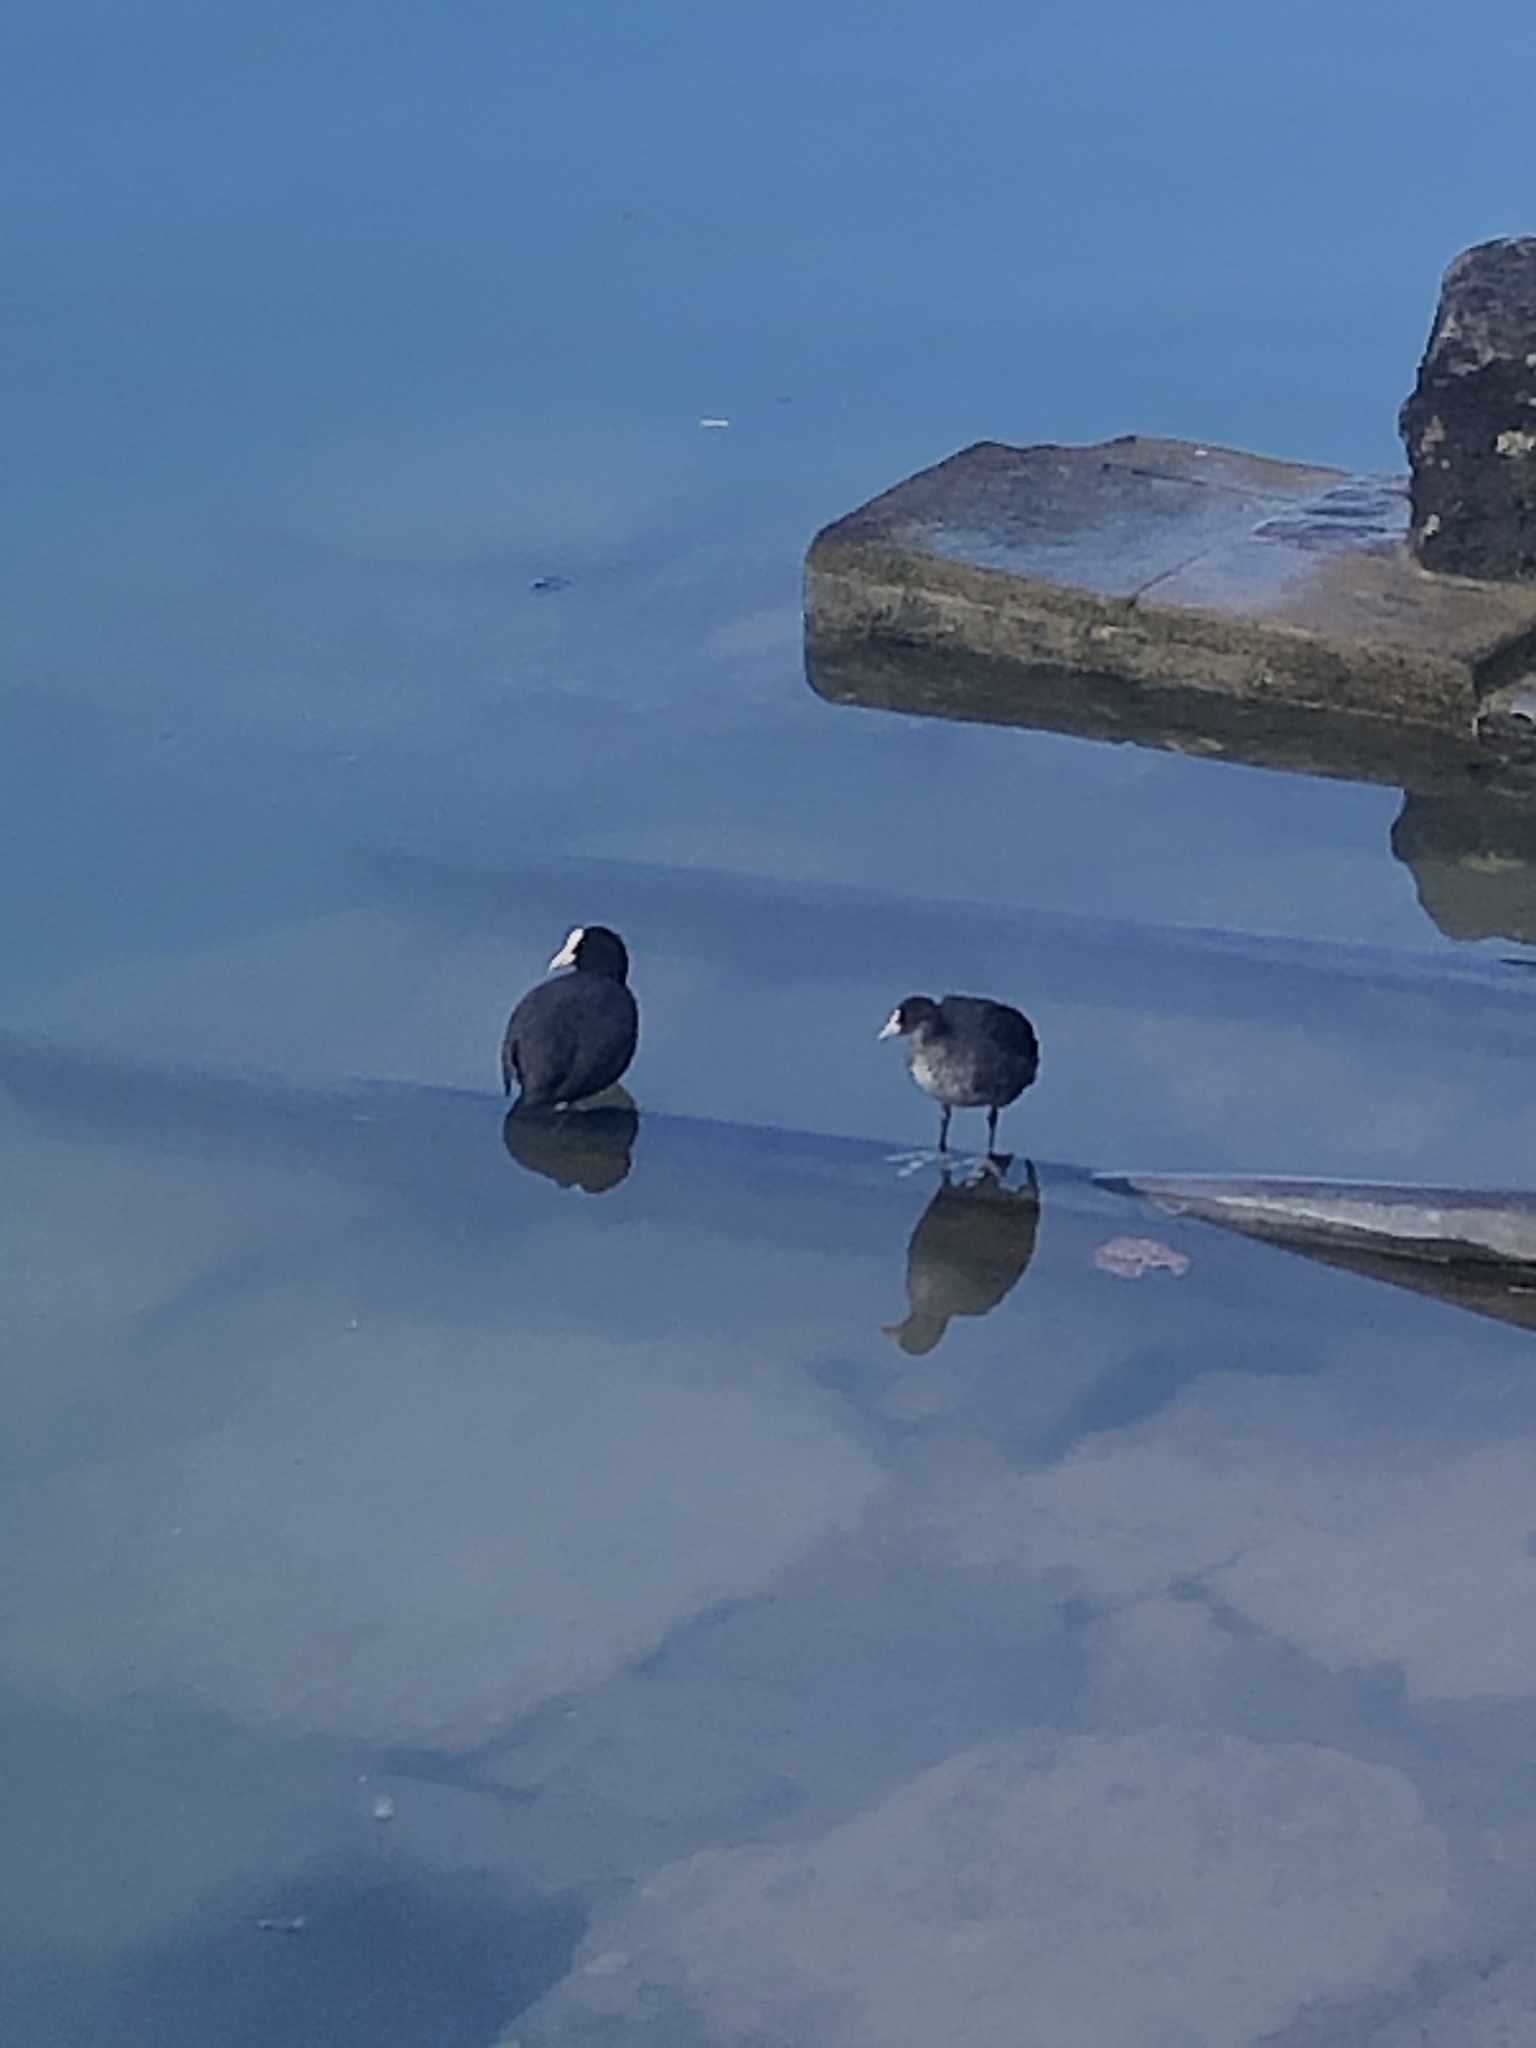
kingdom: Animalia
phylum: Chordata
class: Aves
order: Gruiformes
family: Rallidae
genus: Fulica
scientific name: Fulica atra
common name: Eurasian coot
